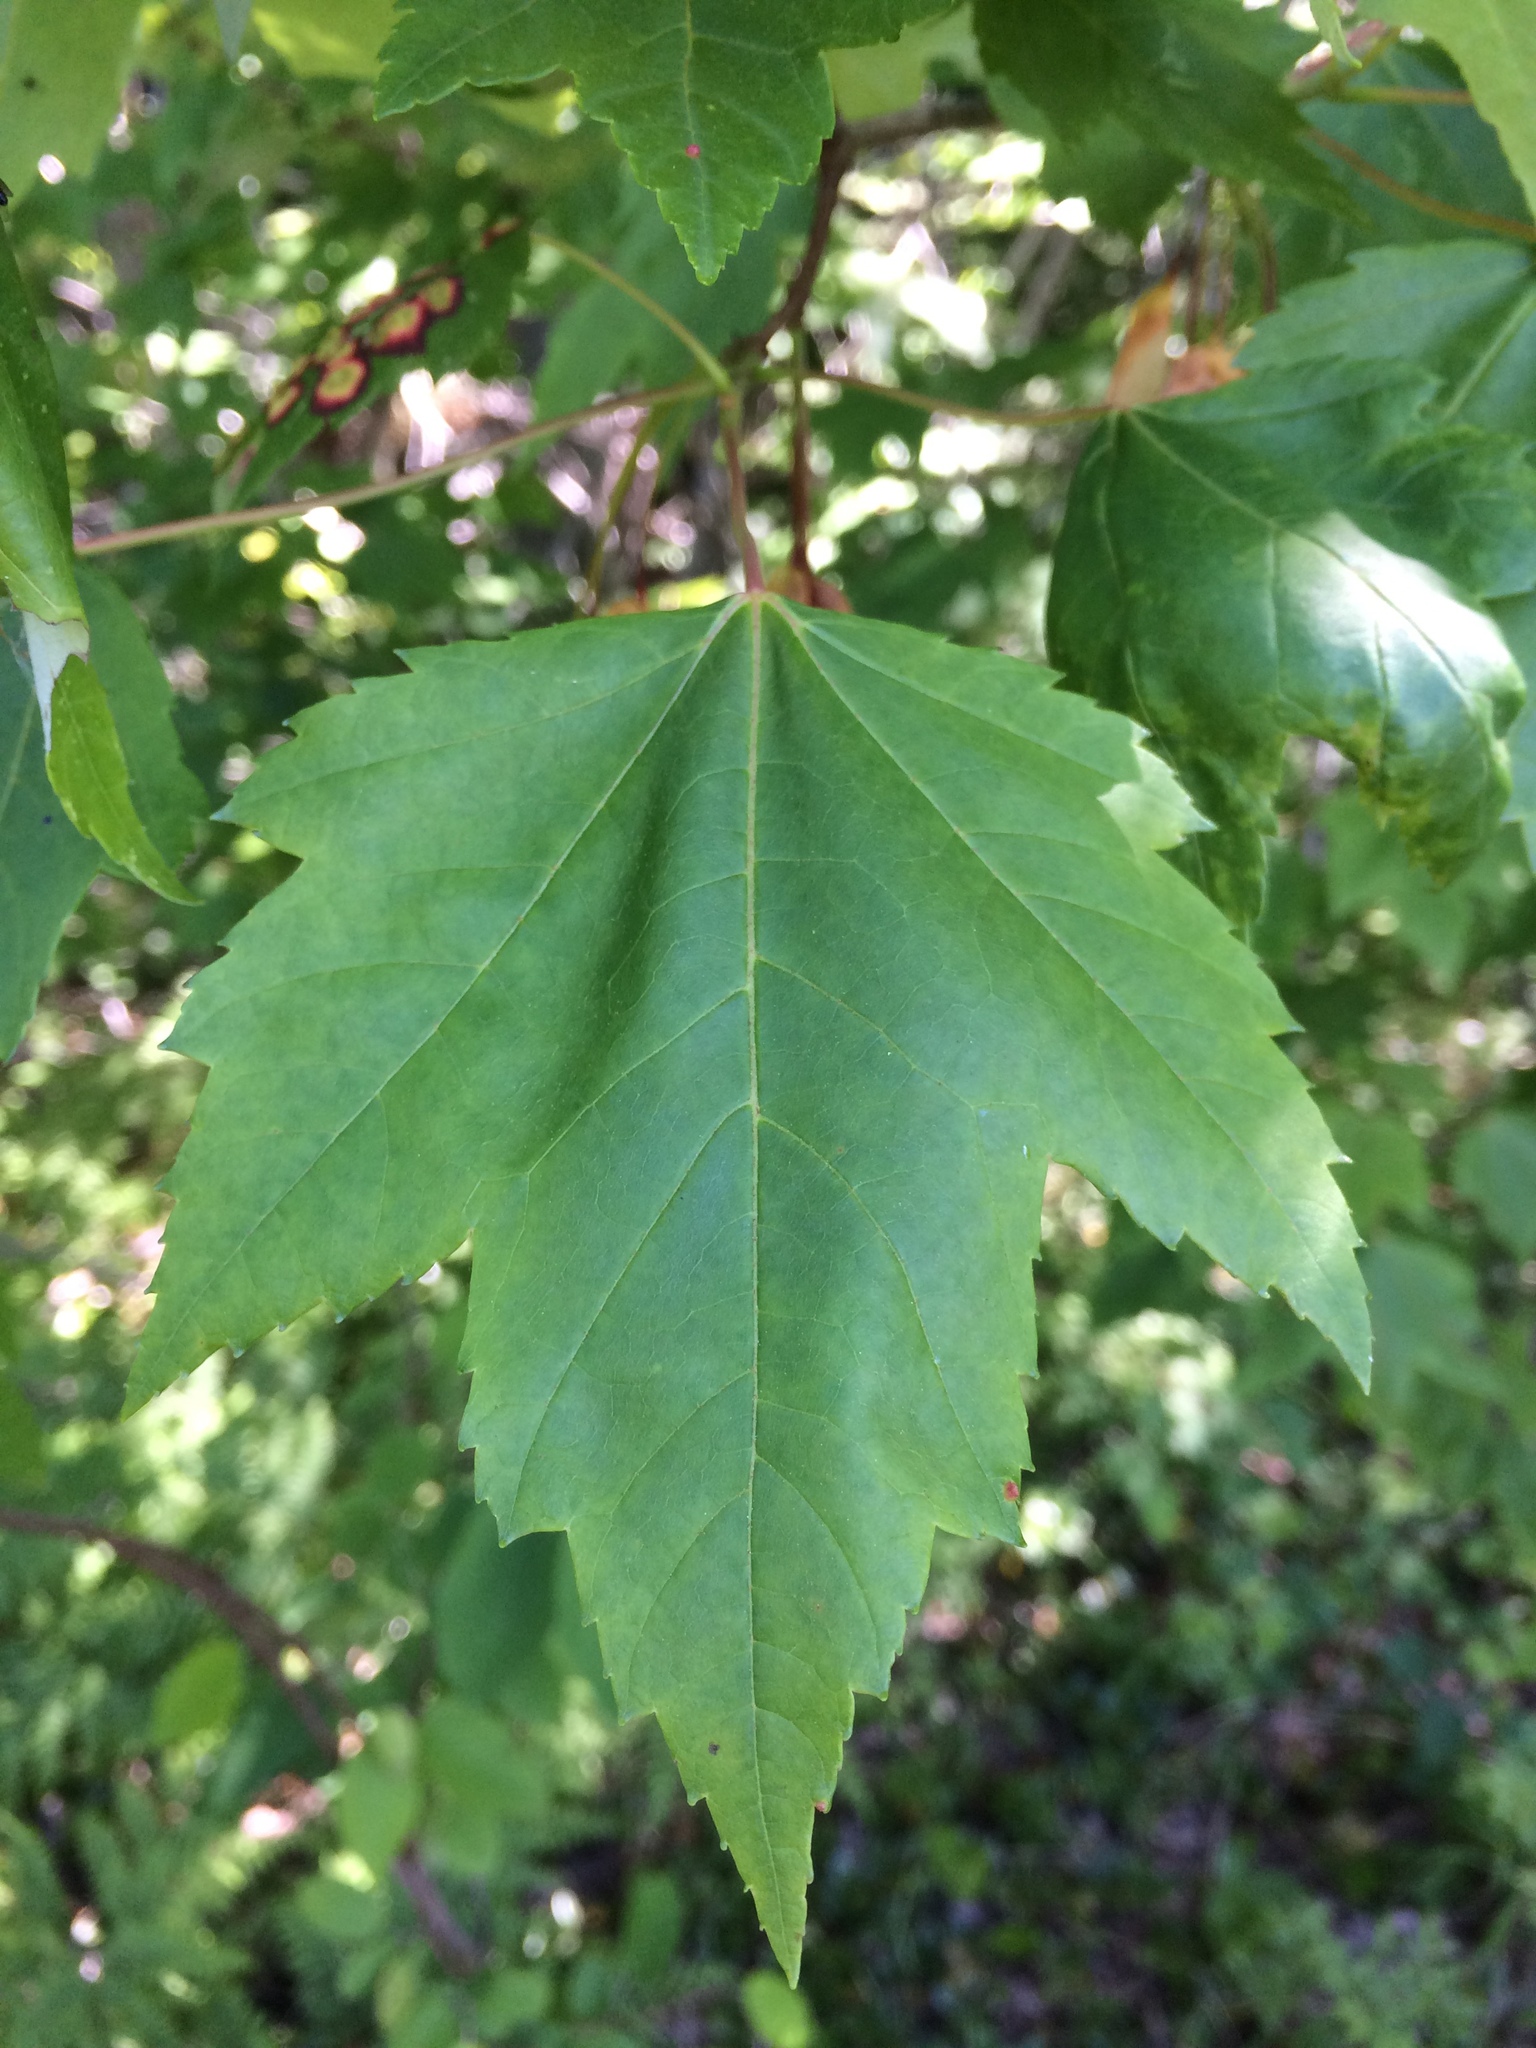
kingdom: Plantae
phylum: Tracheophyta
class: Magnoliopsida
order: Sapindales
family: Sapindaceae
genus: Acer
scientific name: Acer rubrum
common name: Red maple
